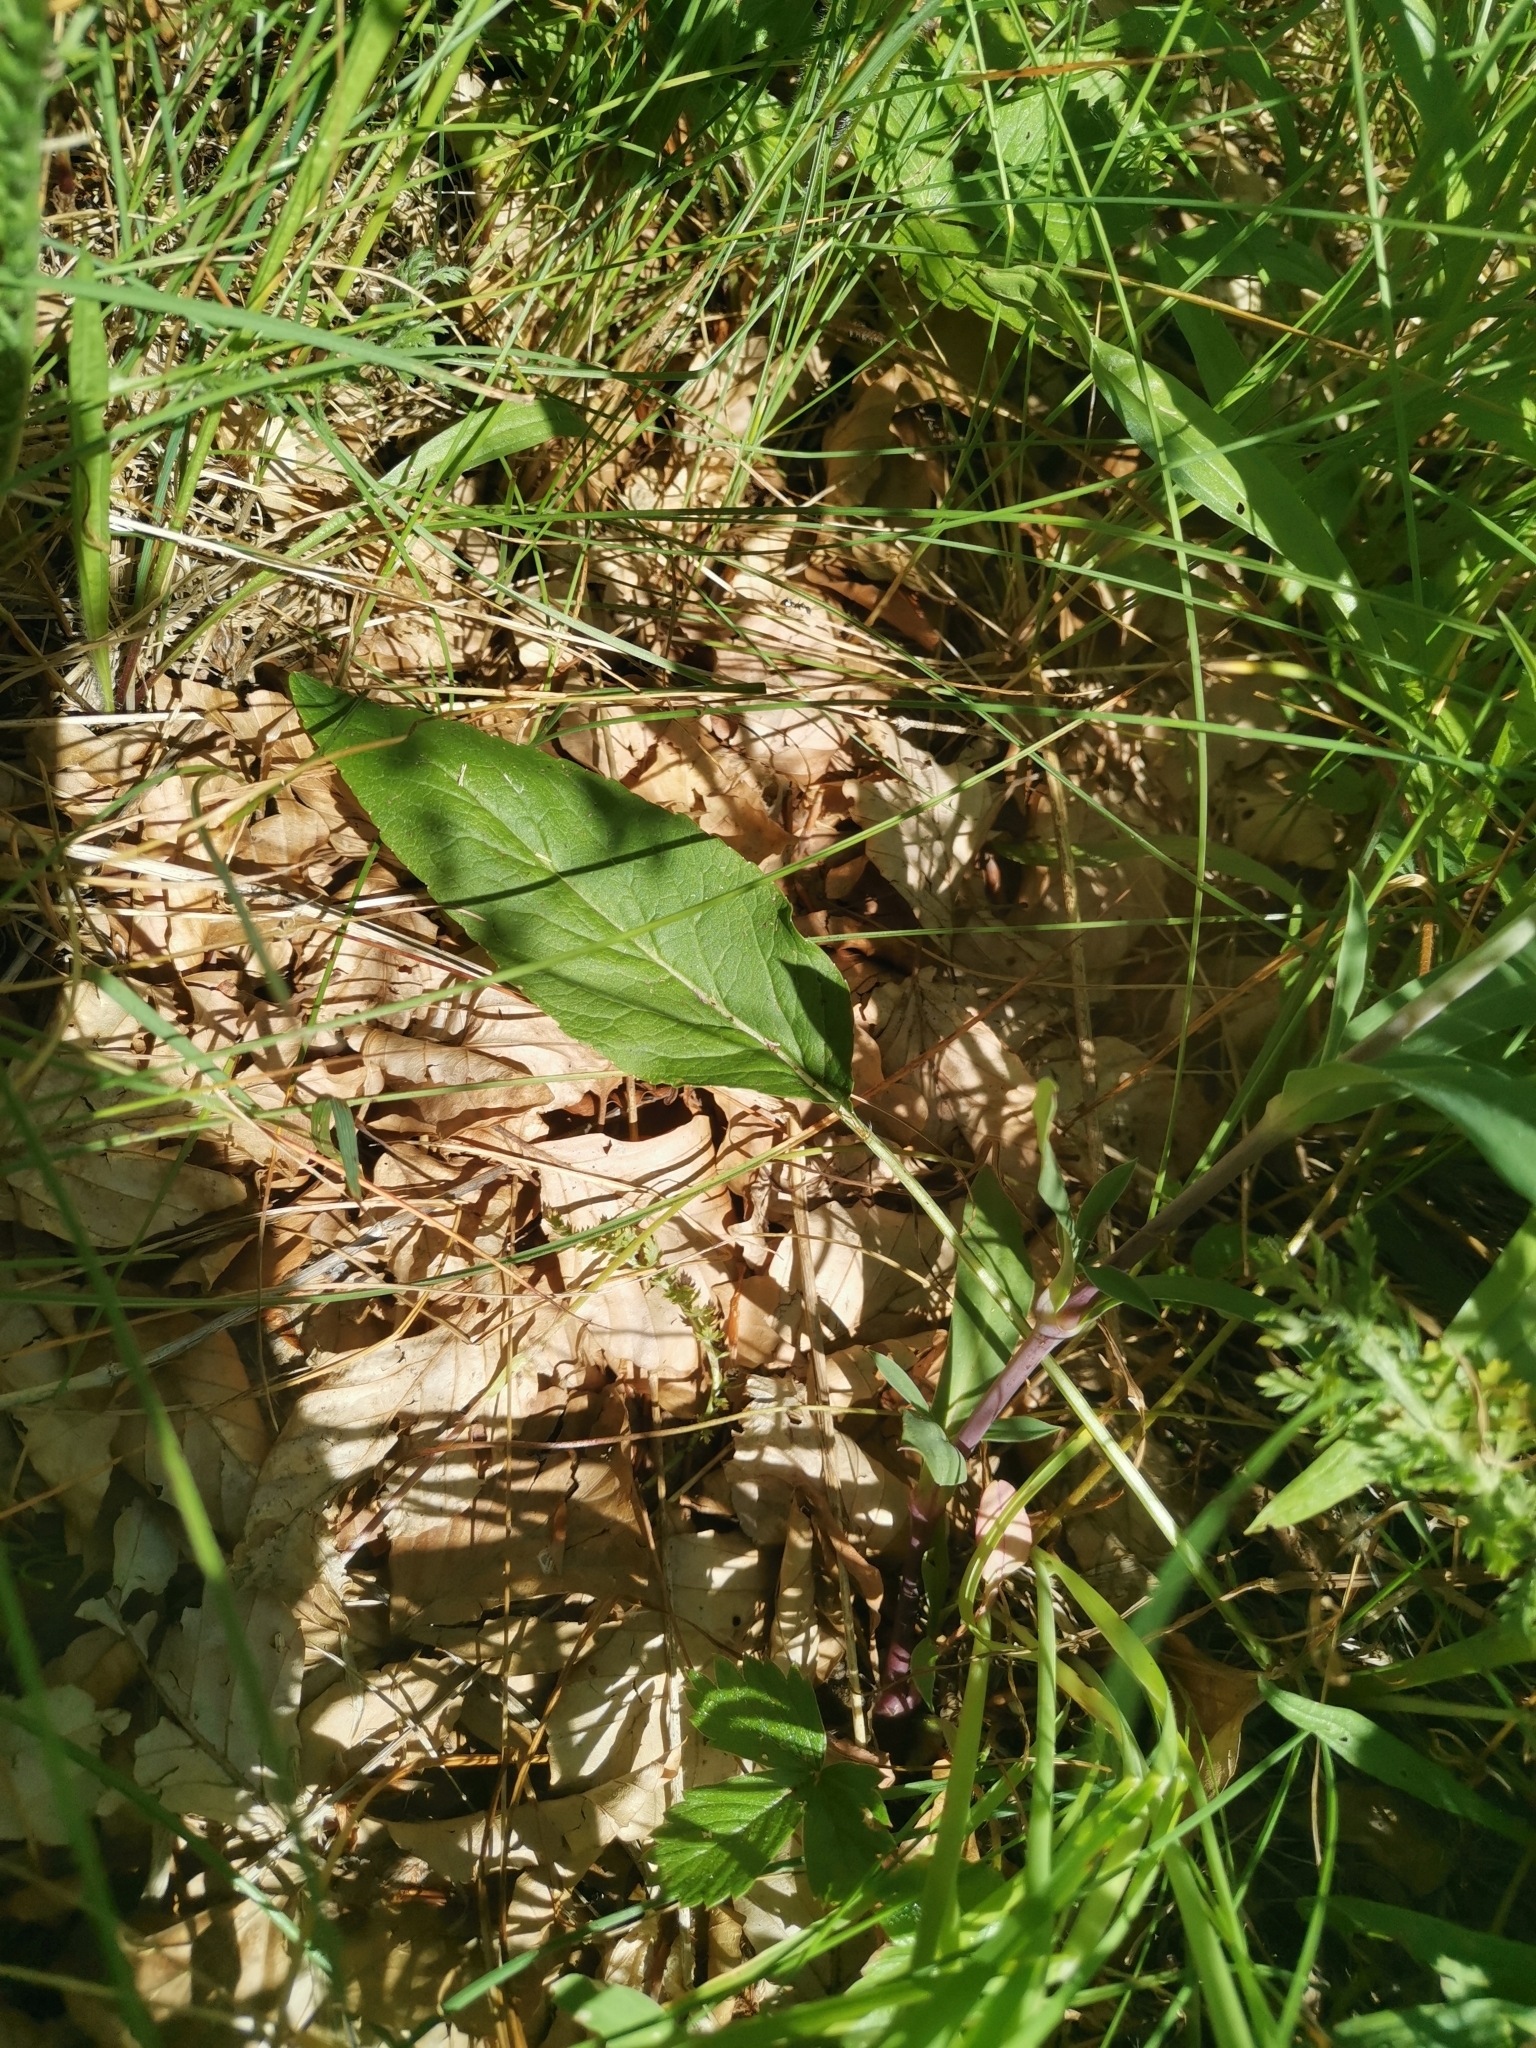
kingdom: Plantae
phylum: Tracheophyta
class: Magnoliopsida
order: Asterales
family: Campanulaceae
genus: Phyteuma
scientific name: Phyteuma persicifolium
